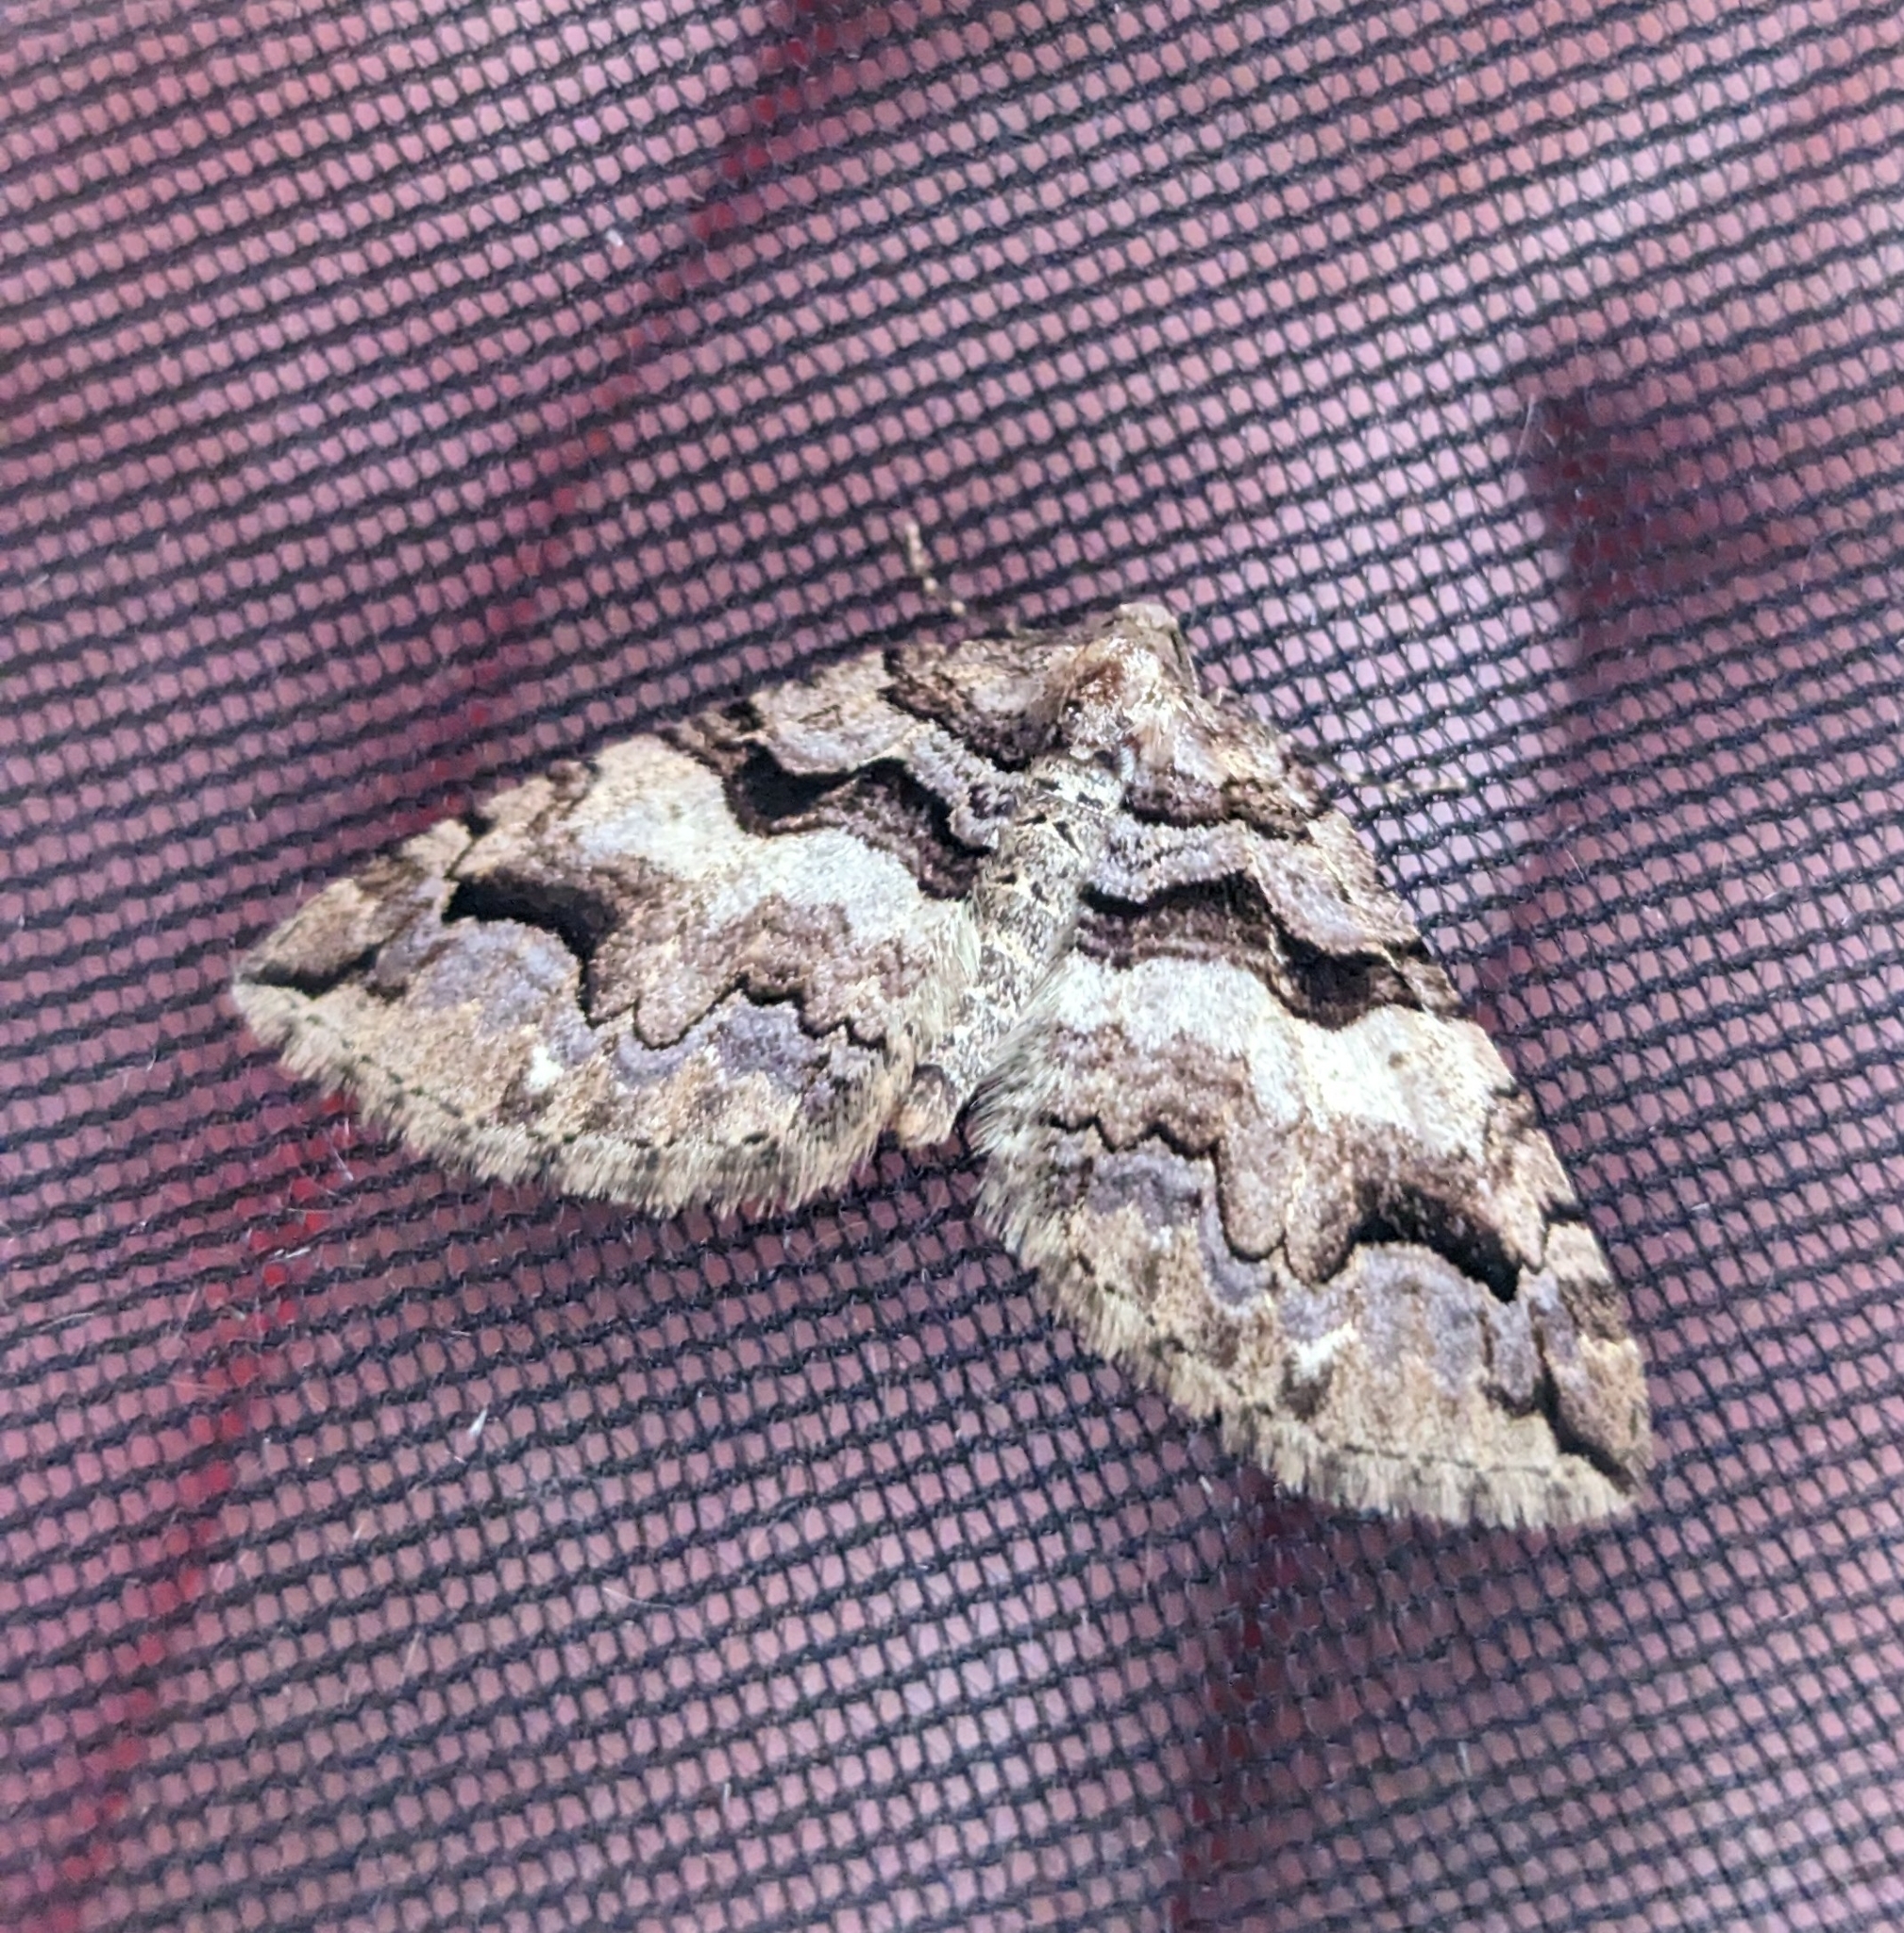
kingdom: Animalia
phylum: Arthropoda
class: Insecta
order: Lepidoptera
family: Geometridae
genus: Anticlea
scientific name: Anticlea vasiliata
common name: Variable carpet
